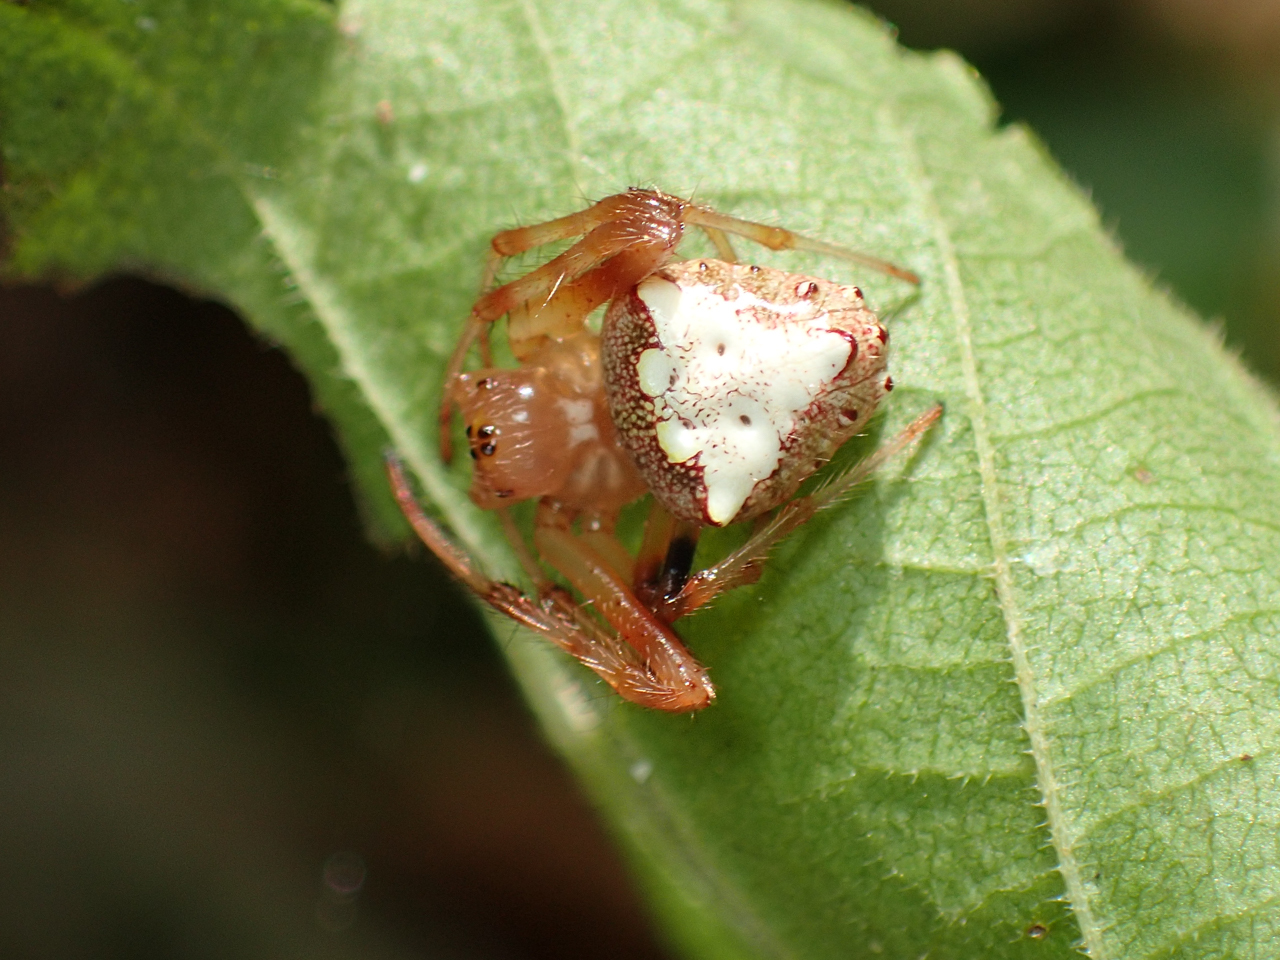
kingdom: Animalia
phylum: Arthropoda
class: Arachnida
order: Araneae
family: Araneidae
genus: Verrucosa
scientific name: Verrucosa arenata
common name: Orb weavers
